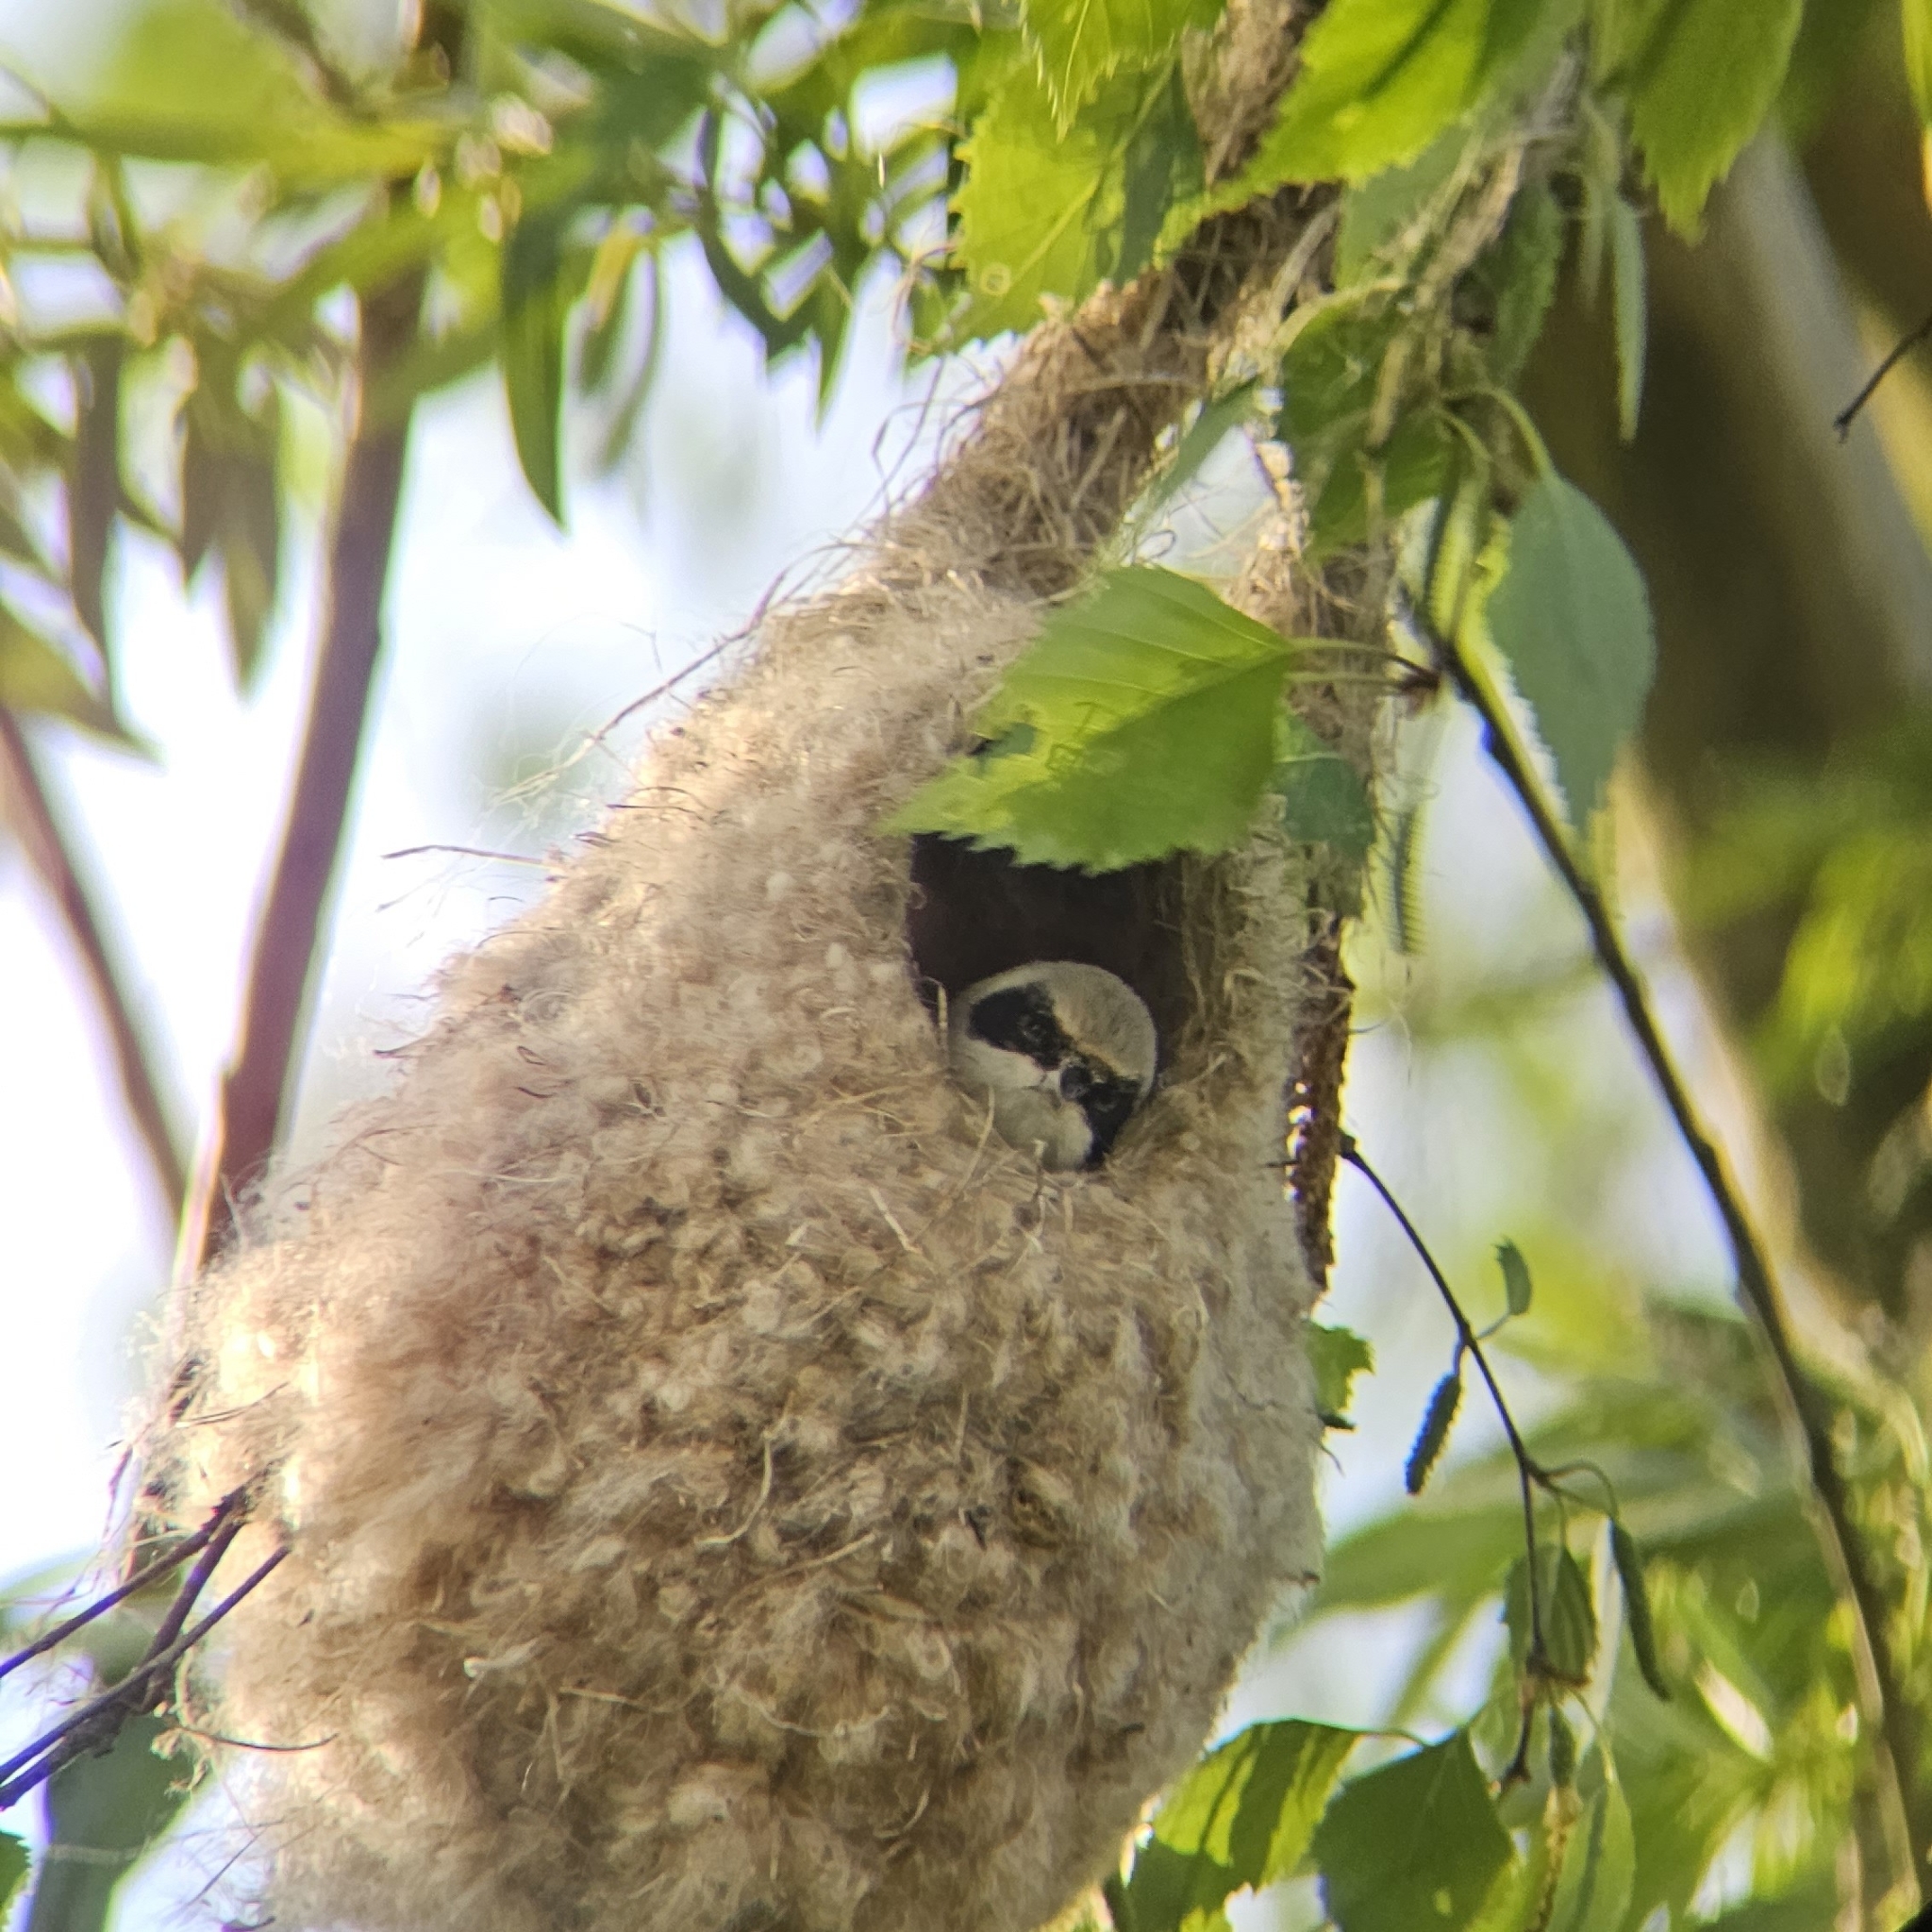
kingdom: Animalia
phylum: Chordata
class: Aves
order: Passeriformes
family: Remizidae
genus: Remiz
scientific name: Remiz pendulinus
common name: Eurasian penduline tit
